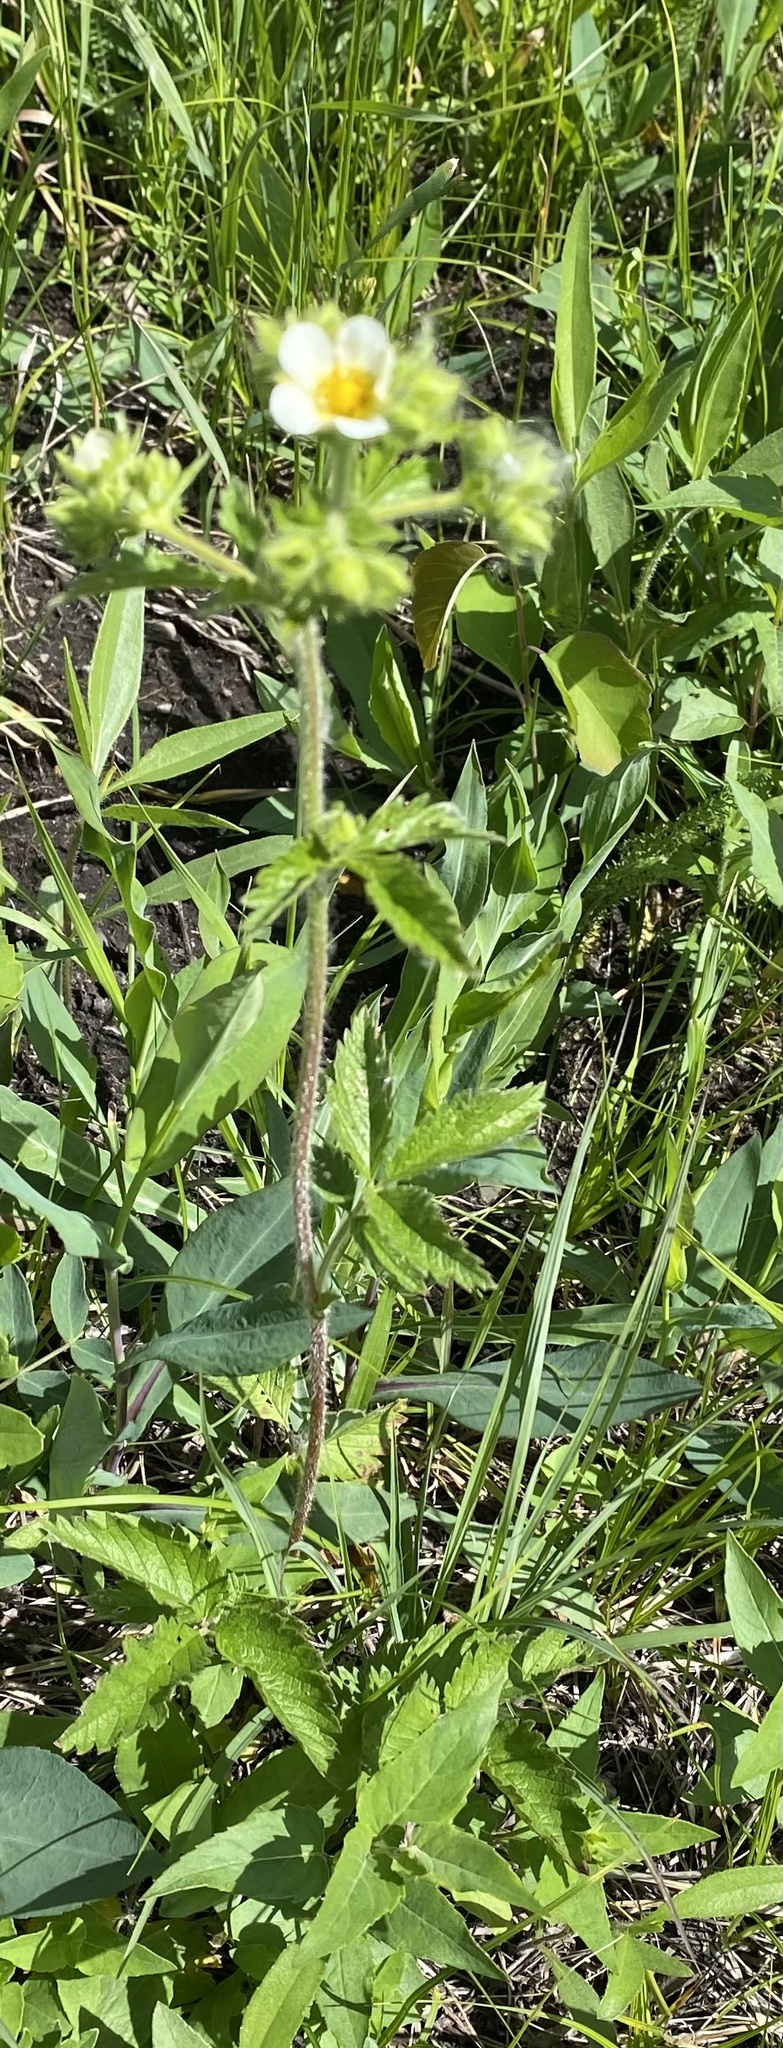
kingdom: Plantae
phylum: Tracheophyta
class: Magnoliopsida
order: Rosales
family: Rosaceae
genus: Drymocallis
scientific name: Drymocallis arguta
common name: Tall cinquefoil
